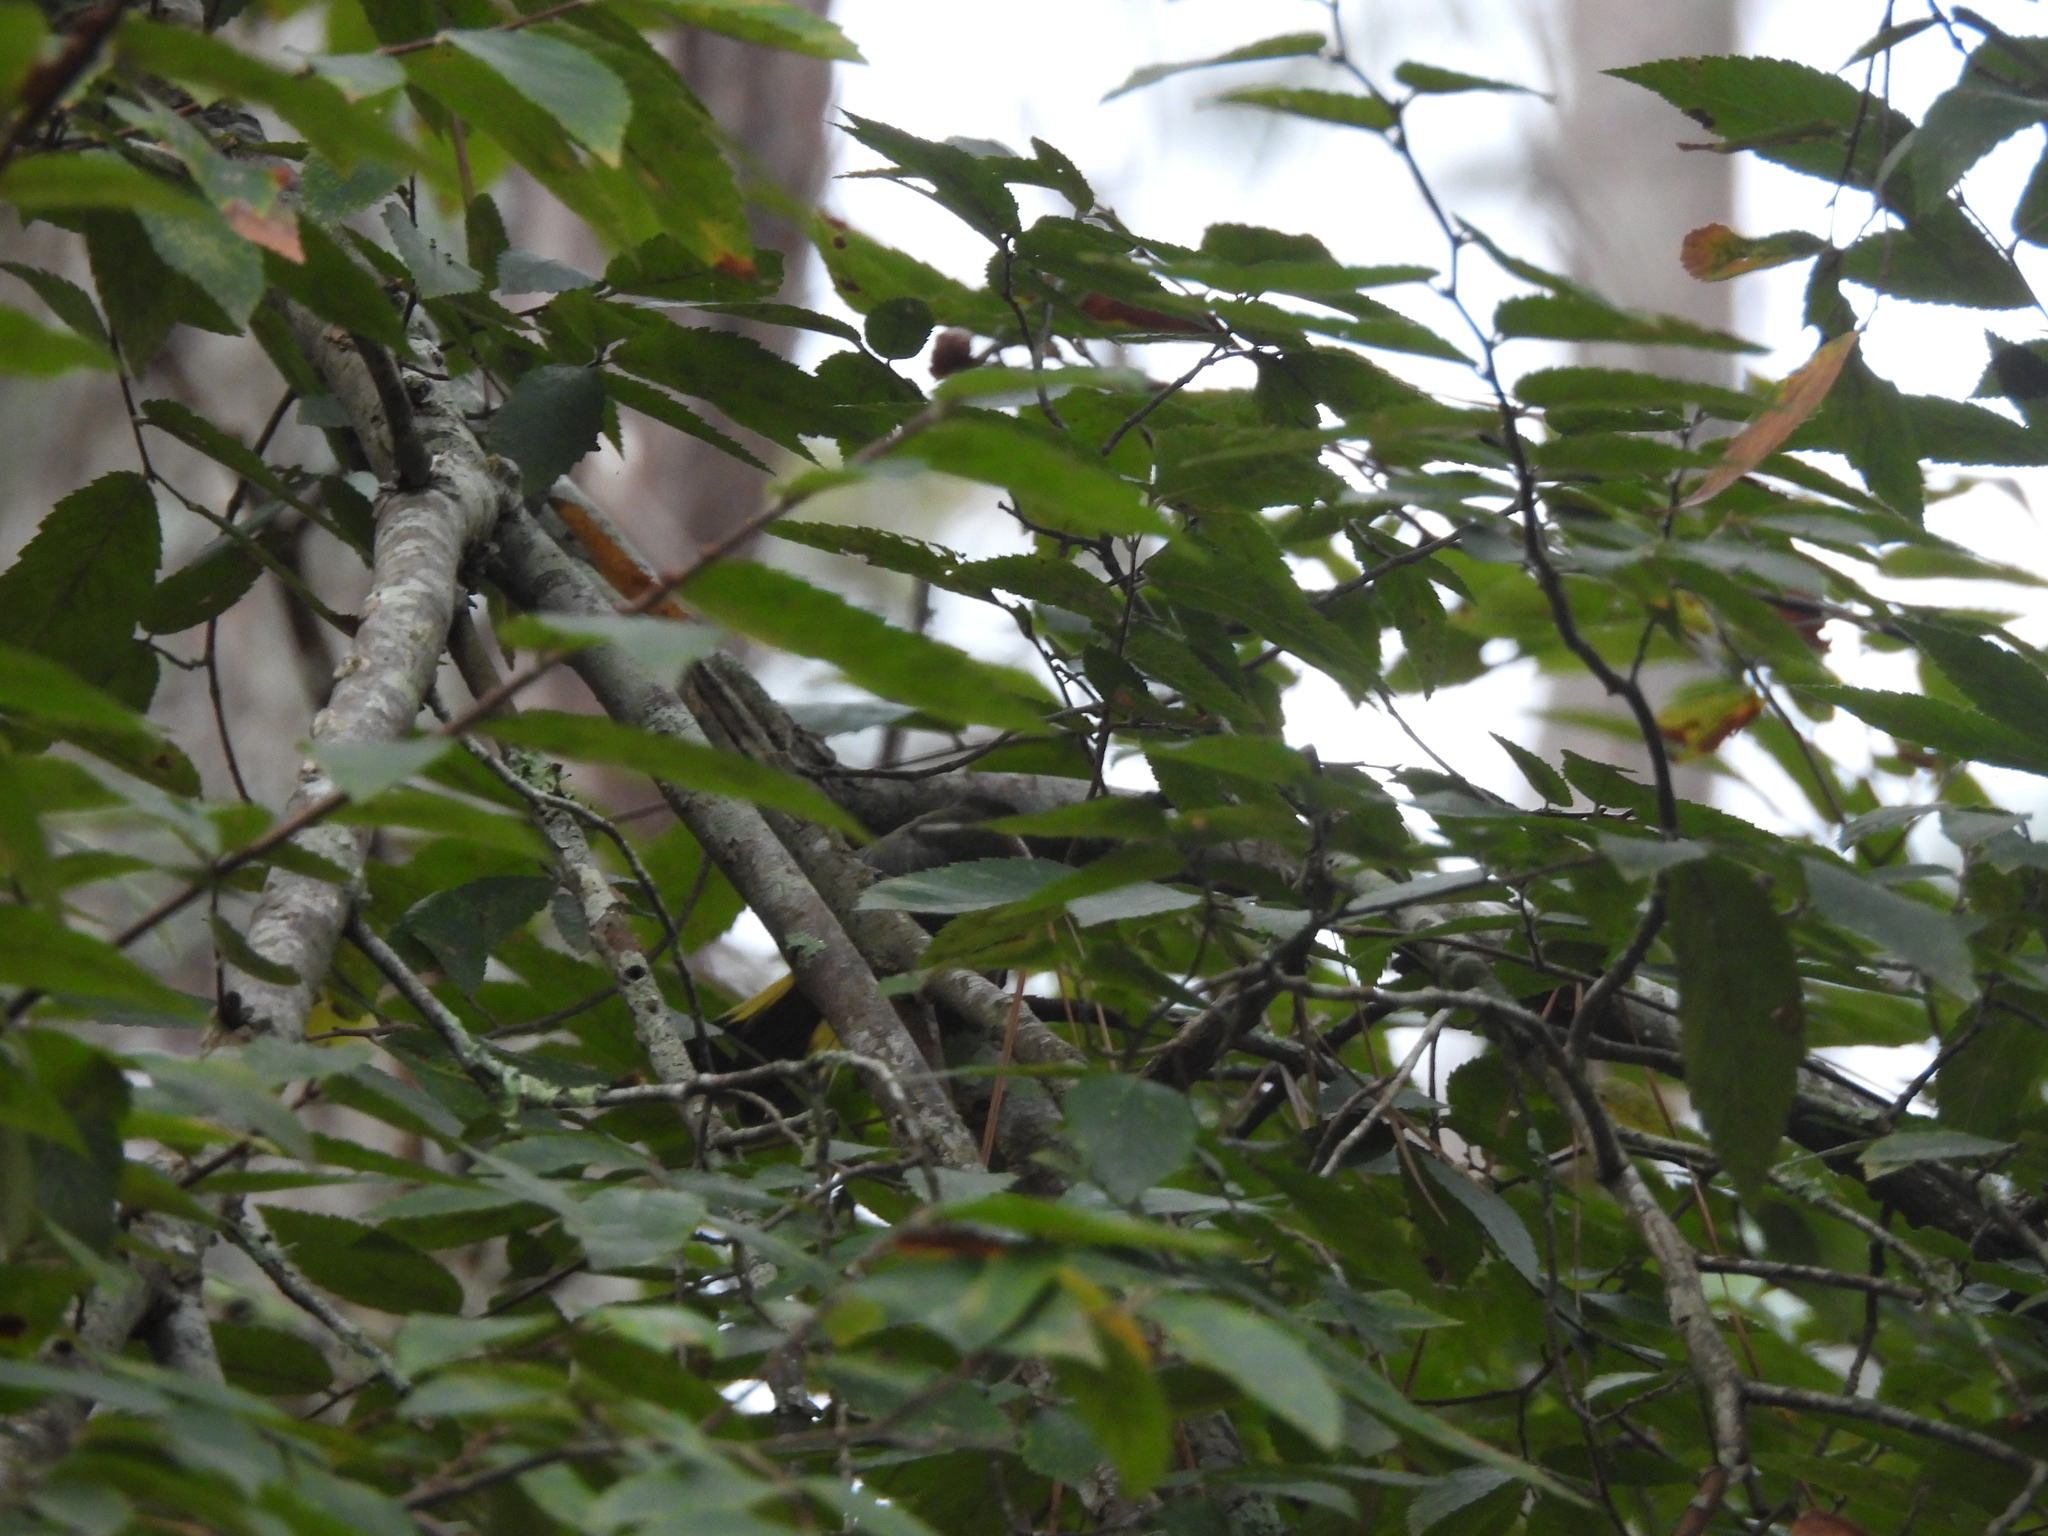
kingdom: Animalia
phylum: Chordata
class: Aves
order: Passeriformes
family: Parulidae
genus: Setophaga
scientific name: Setophaga ruticilla
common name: American redstart
